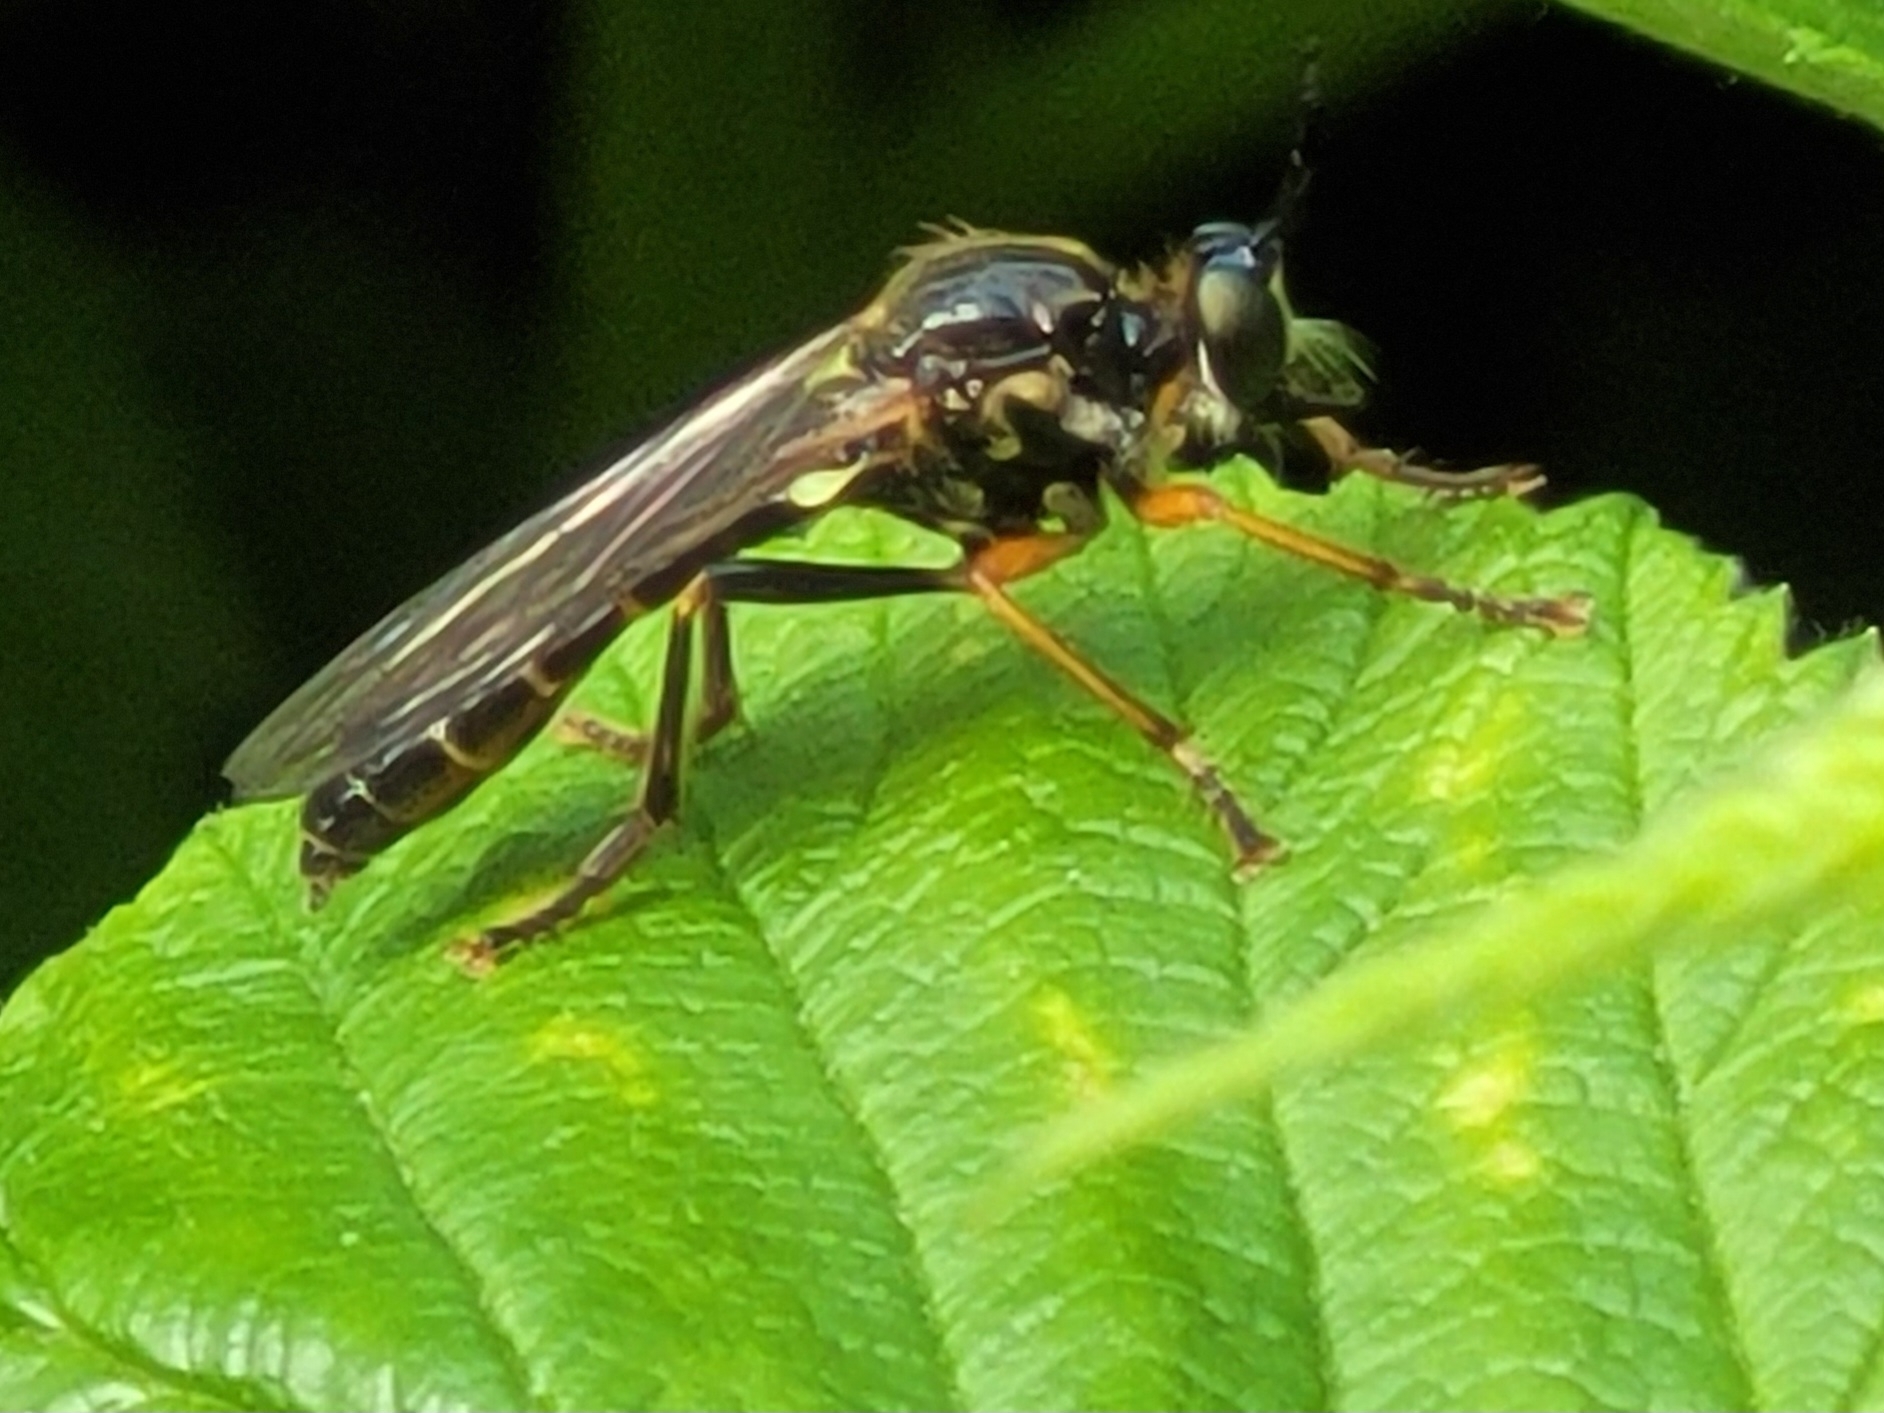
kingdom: Animalia
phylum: Arthropoda
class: Insecta
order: Diptera
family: Asilidae
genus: Dioctria
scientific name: Dioctria rufipes
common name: Common red-legged robberfly
